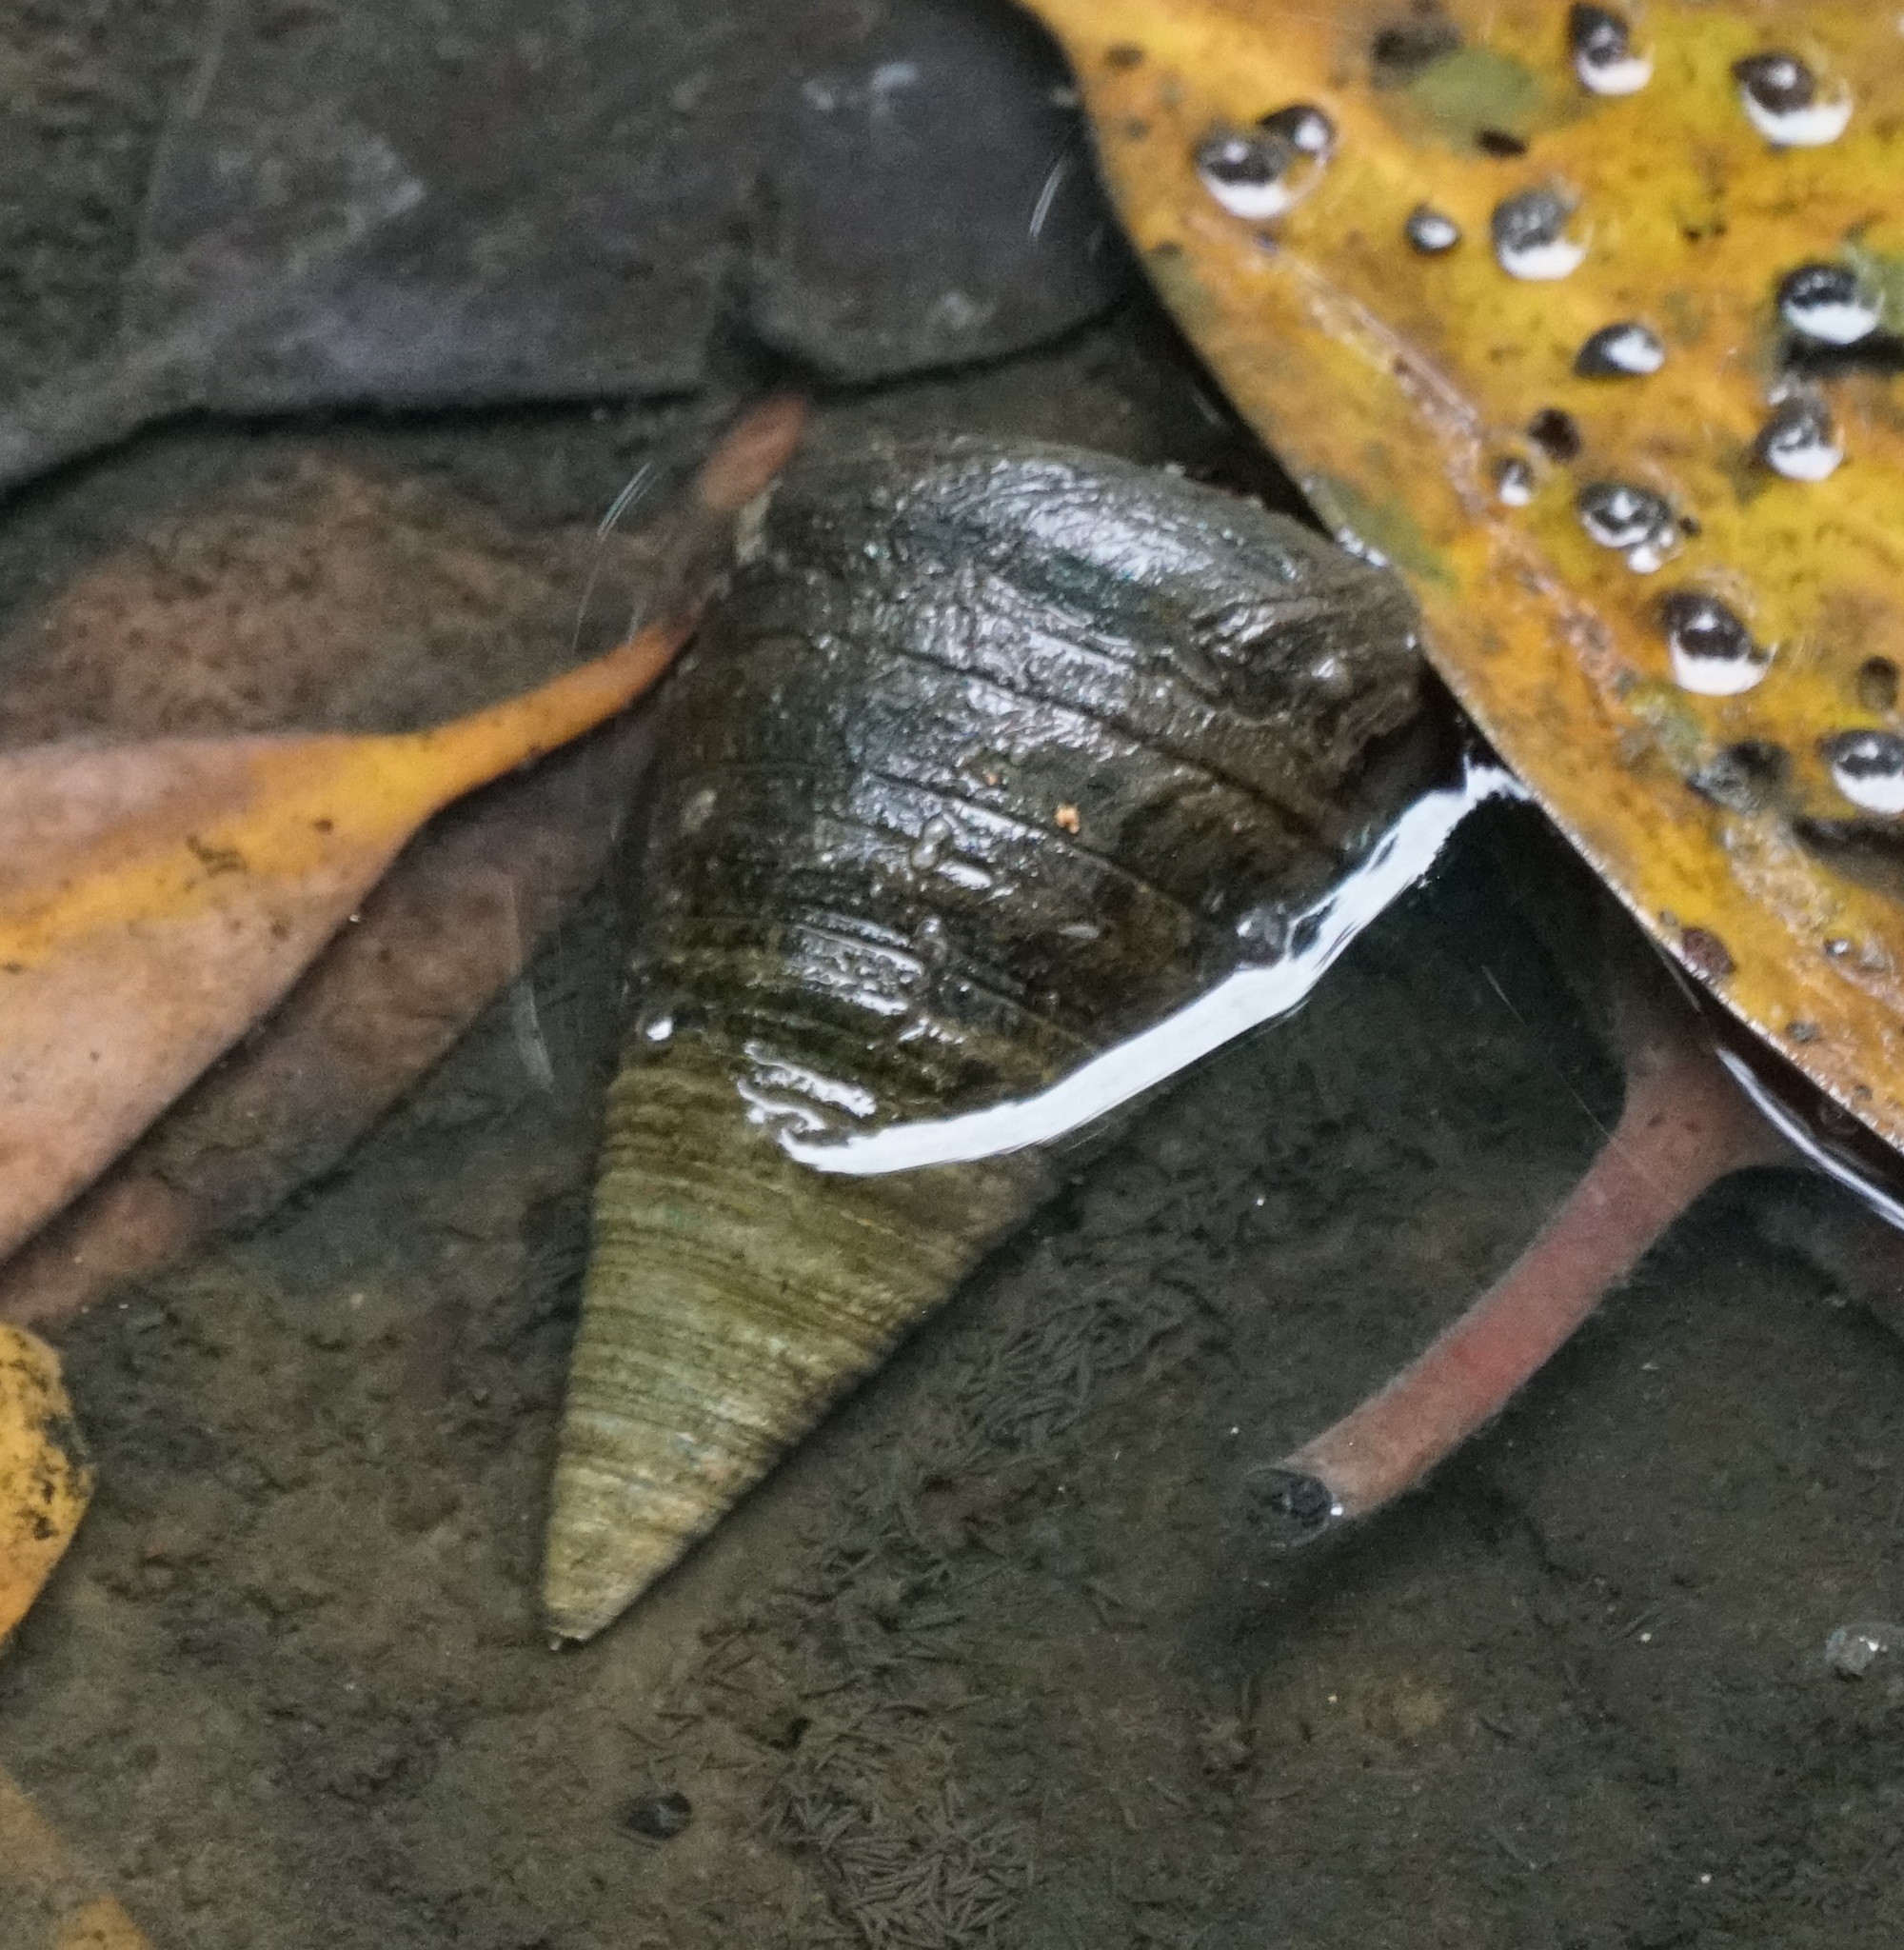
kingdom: Animalia
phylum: Mollusca
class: Gastropoda
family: Potamididae
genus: Telescopium
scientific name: Telescopium telescopium
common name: Telescope creeper
